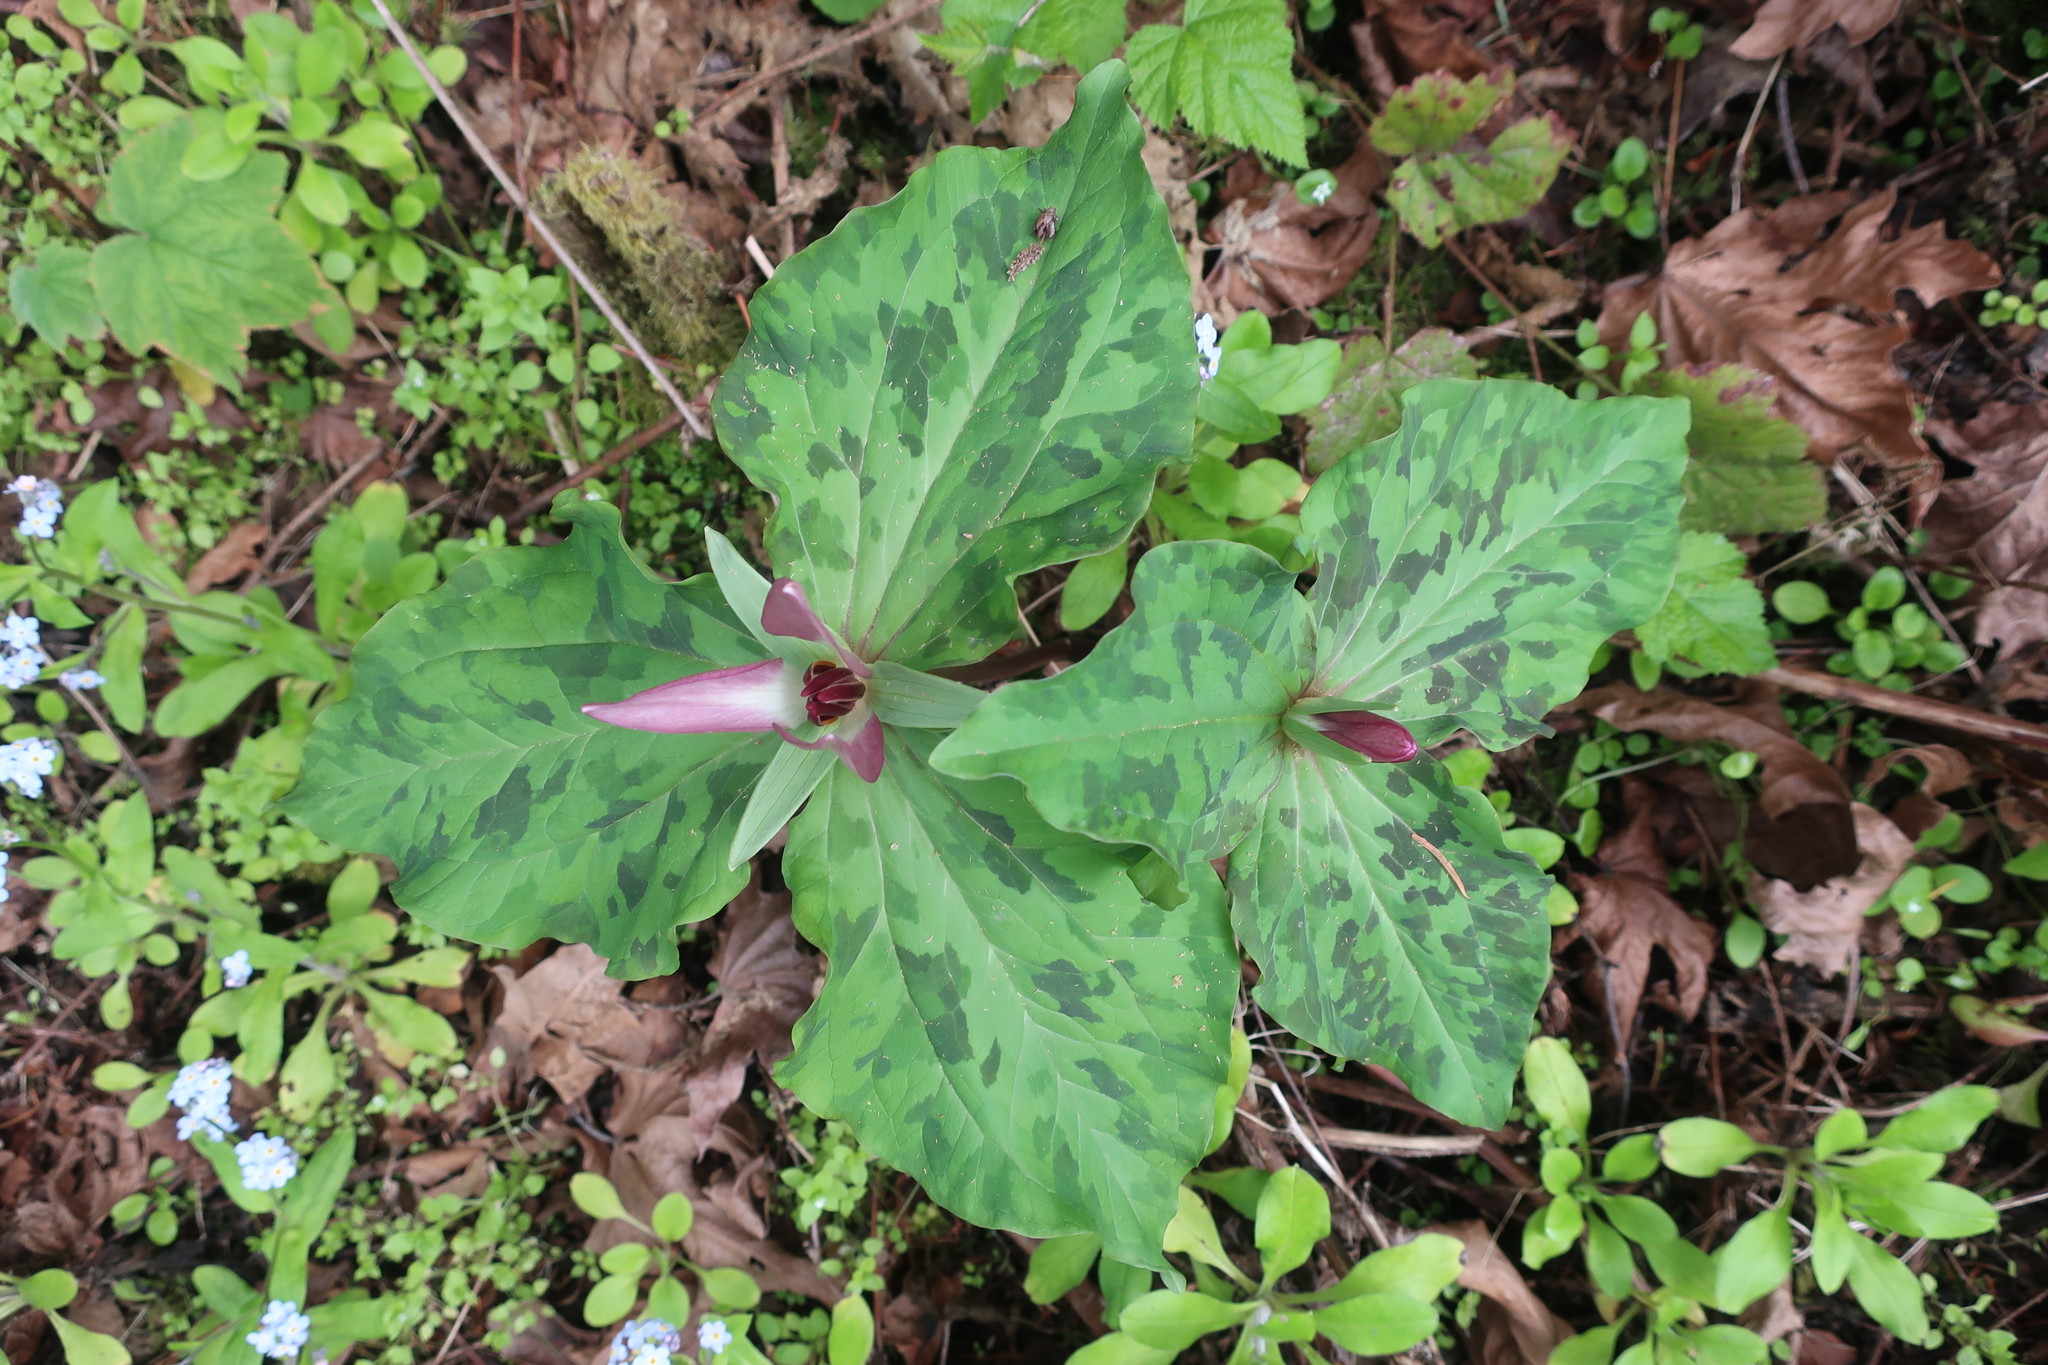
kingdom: Plantae
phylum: Tracheophyta
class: Liliopsida
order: Liliales
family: Melanthiaceae
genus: Trillium
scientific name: Trillium chloropetalum
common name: Giant trillium
